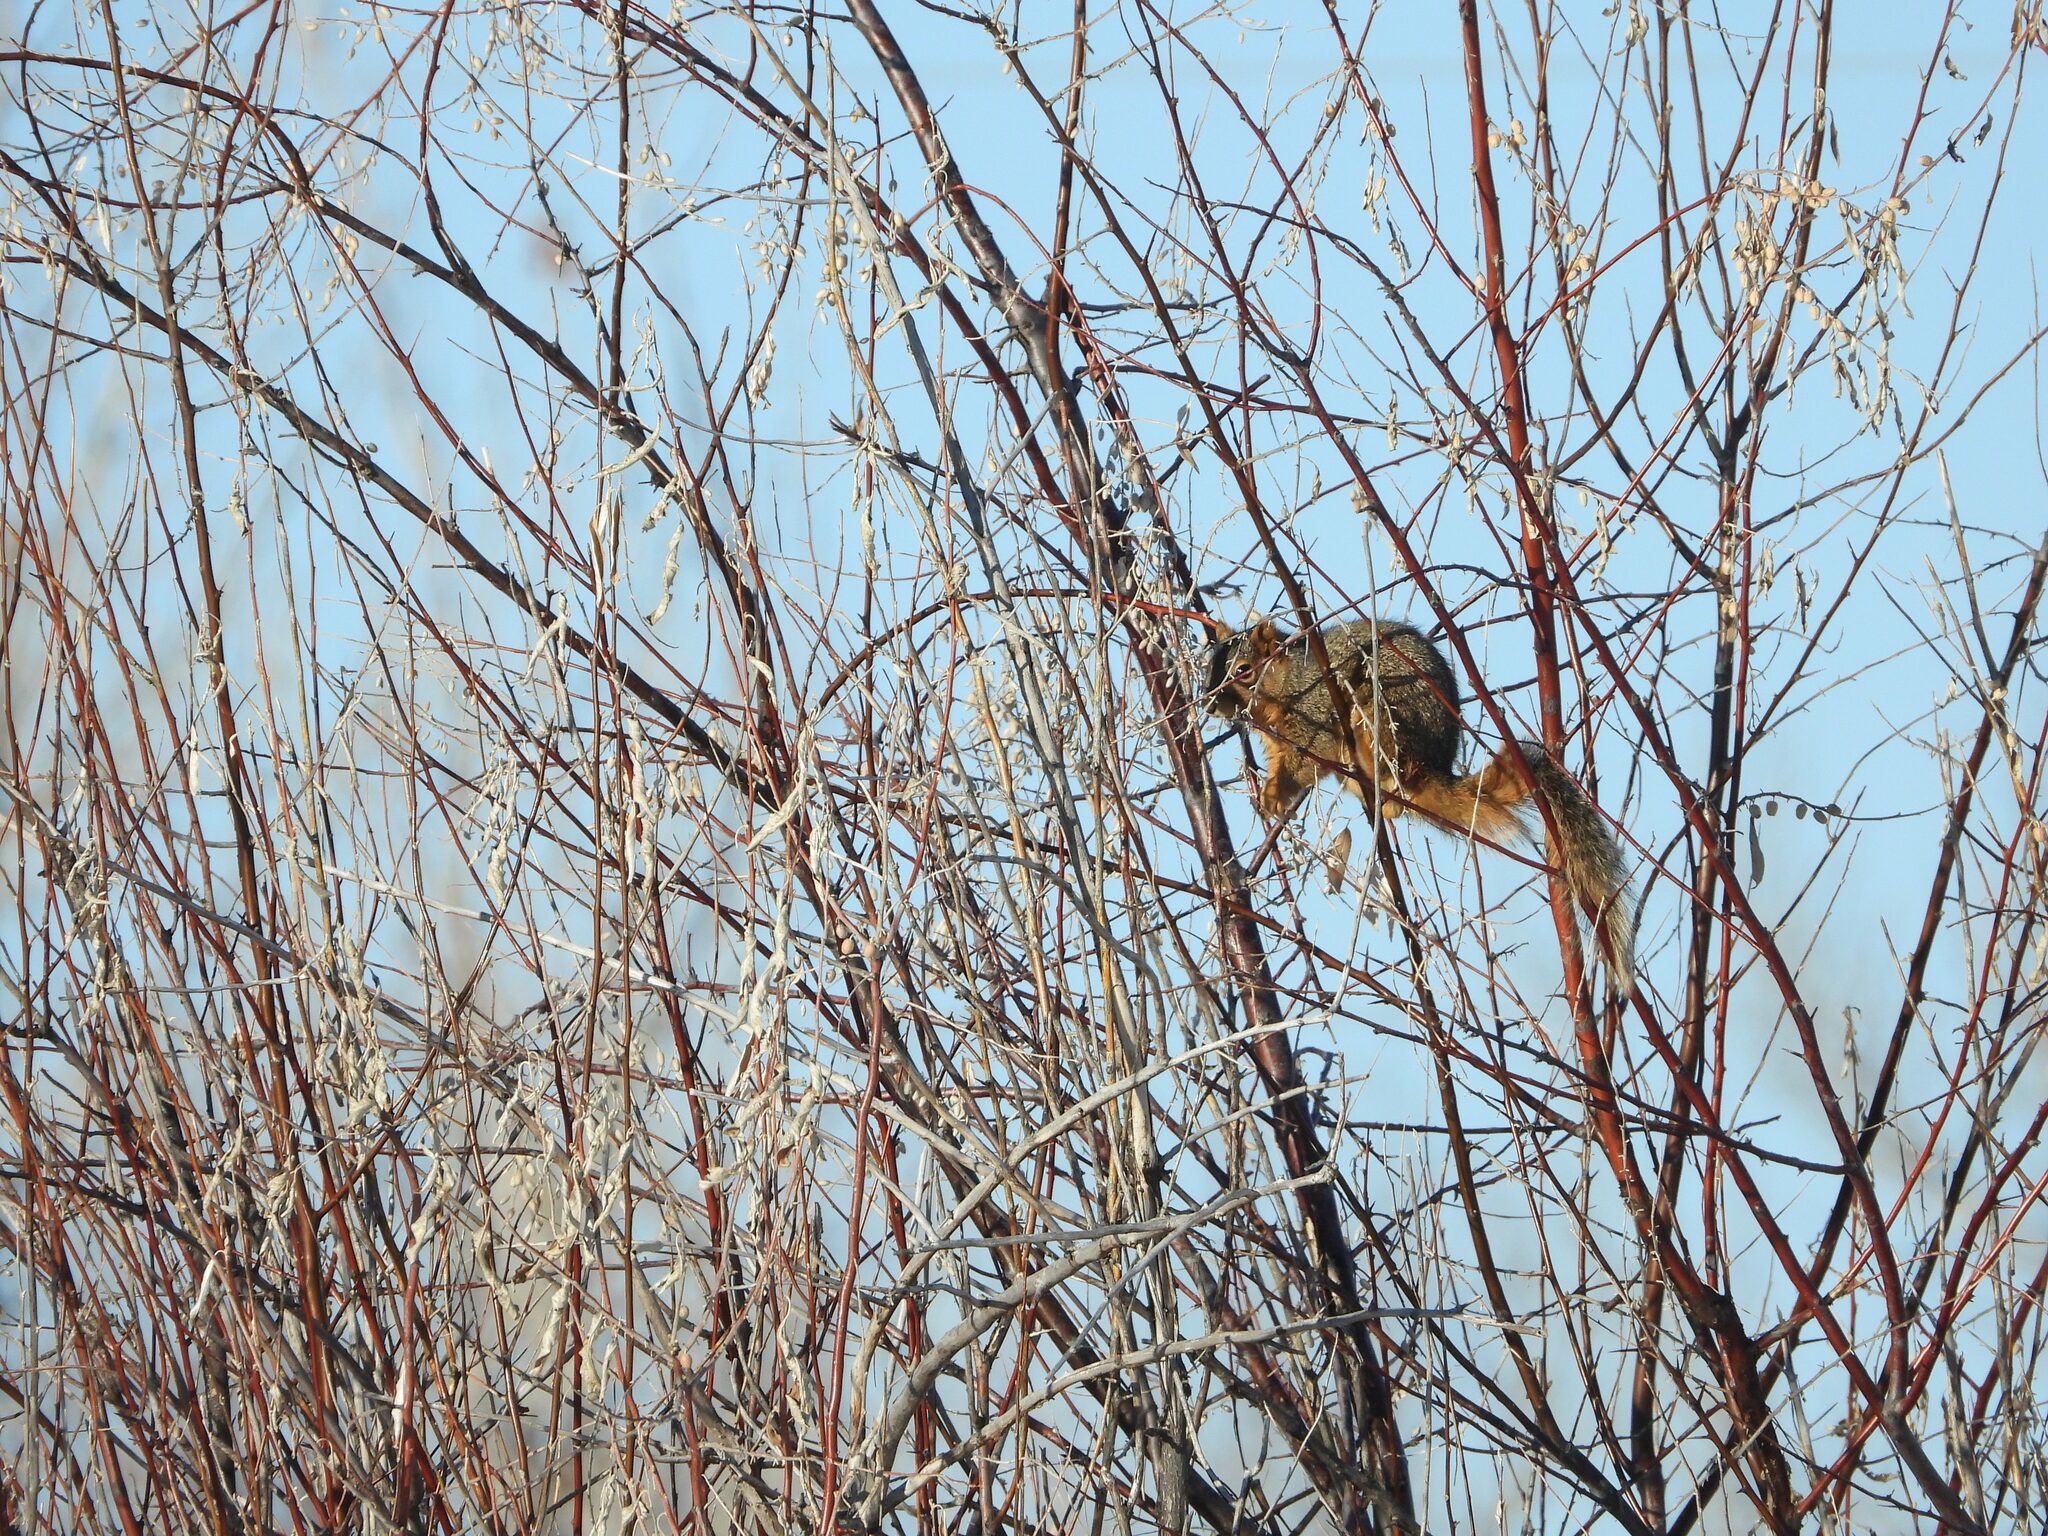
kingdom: Animalia
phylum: Chordata
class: Mammalia
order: Rodentia
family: Sciuridae
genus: Sciurus
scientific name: Sciurus niger
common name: Fox squirrel
